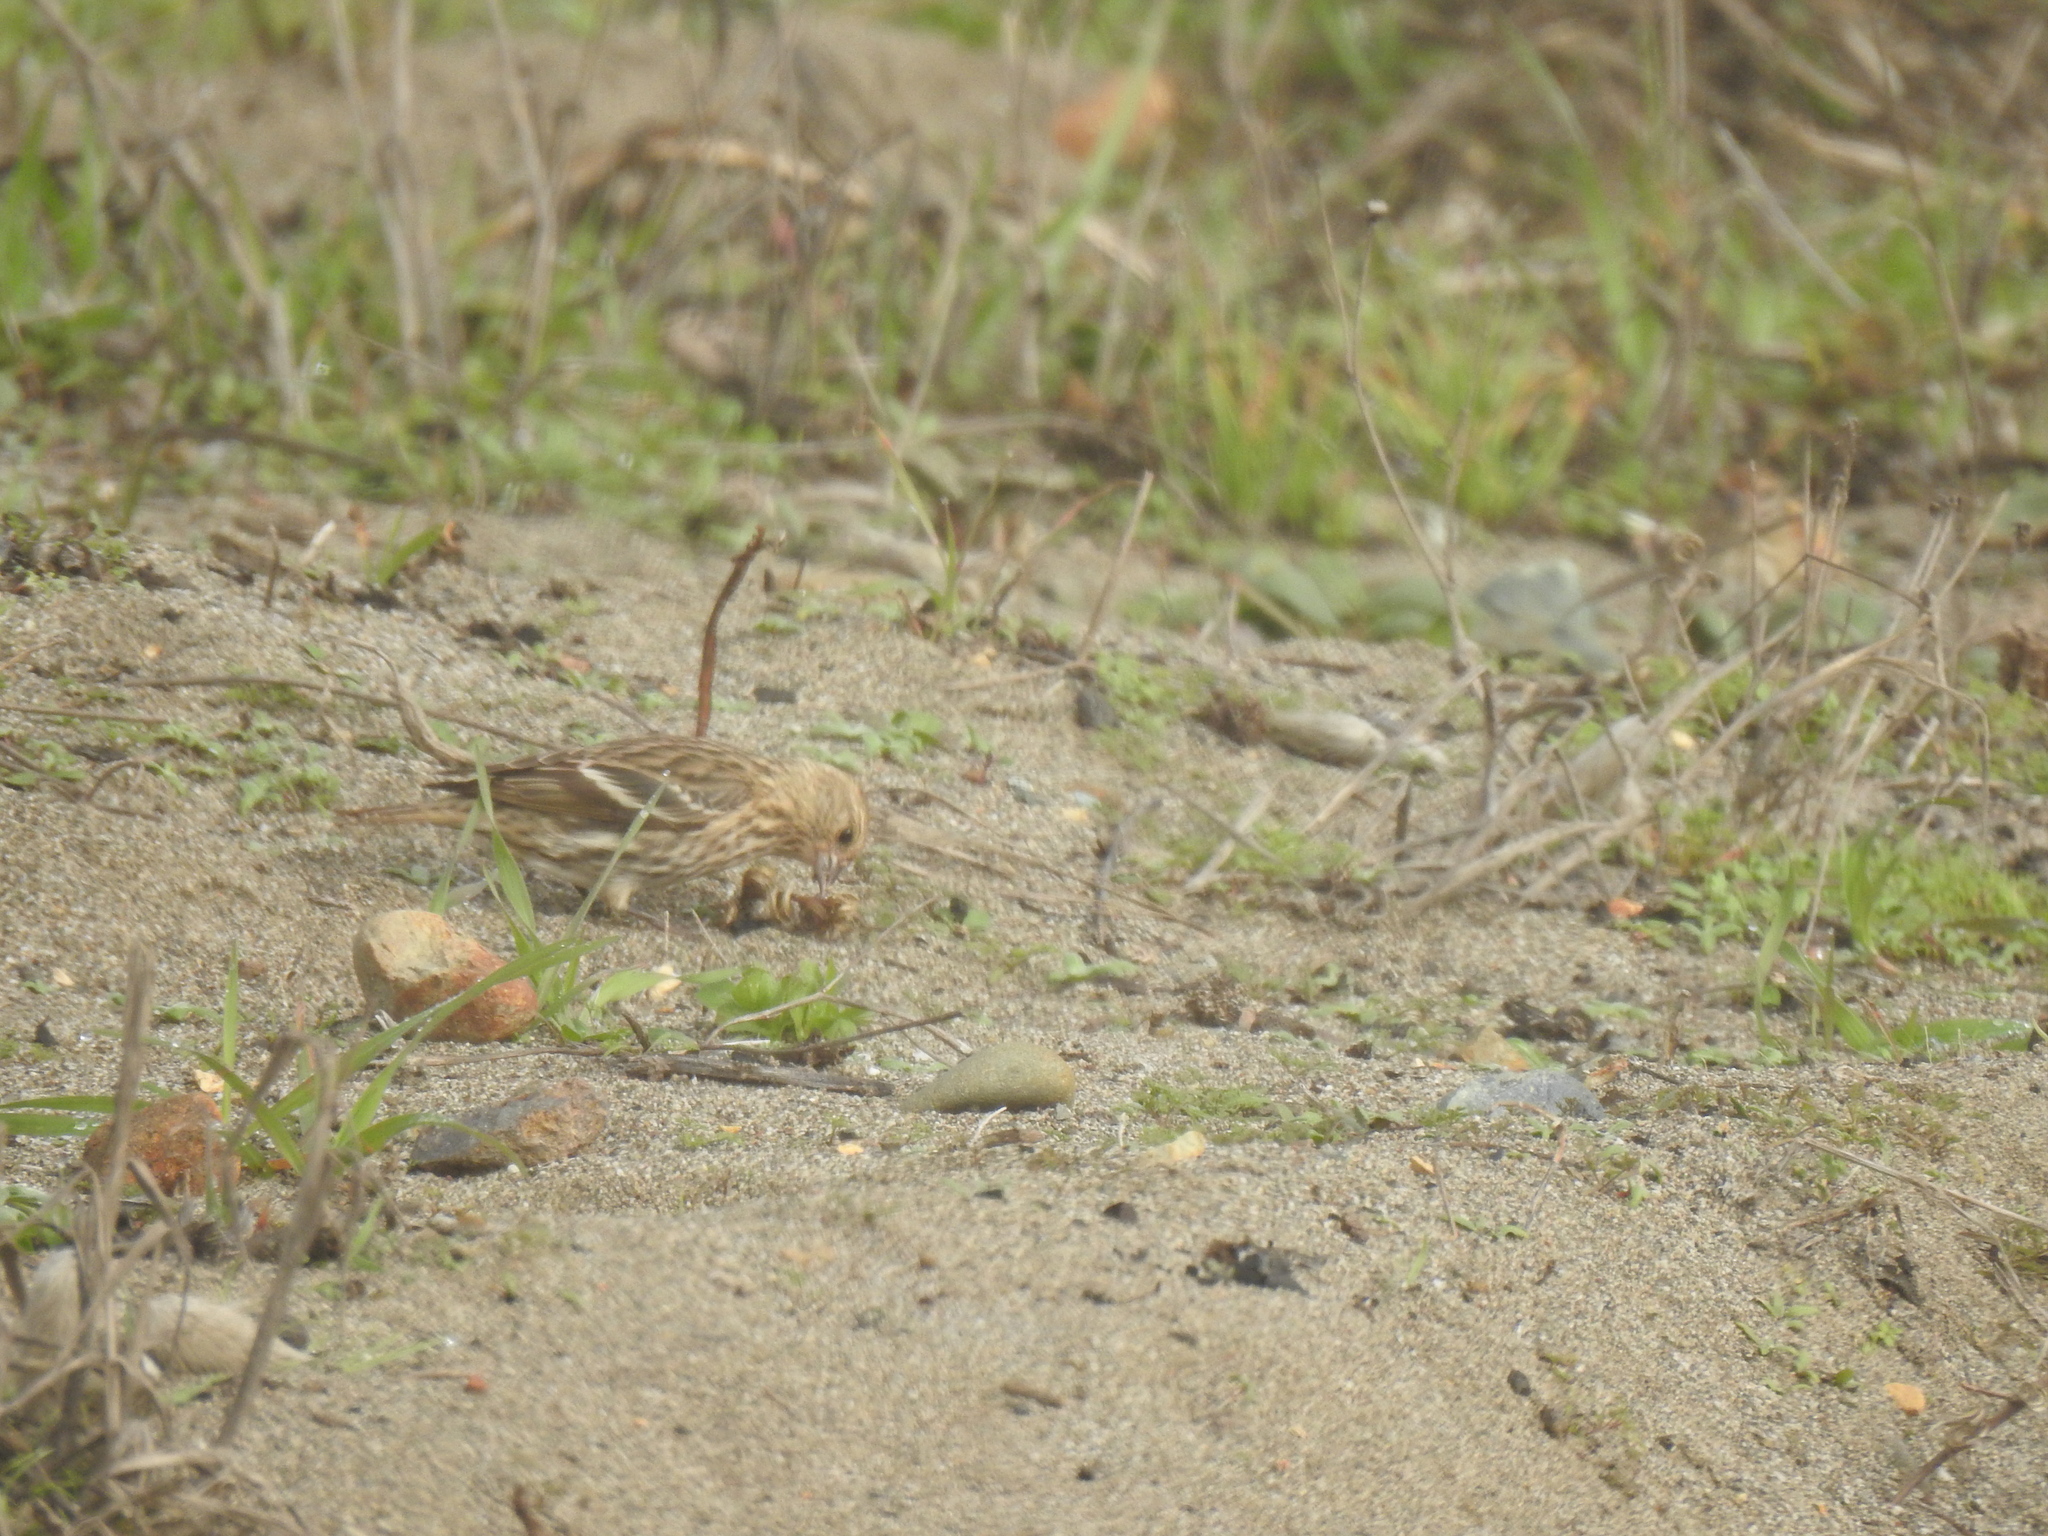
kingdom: Animalia
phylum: Chordata
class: Aves
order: Passeriformes
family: Fringillidae
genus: Spinus
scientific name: Spinus pinus
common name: Pine siskin
